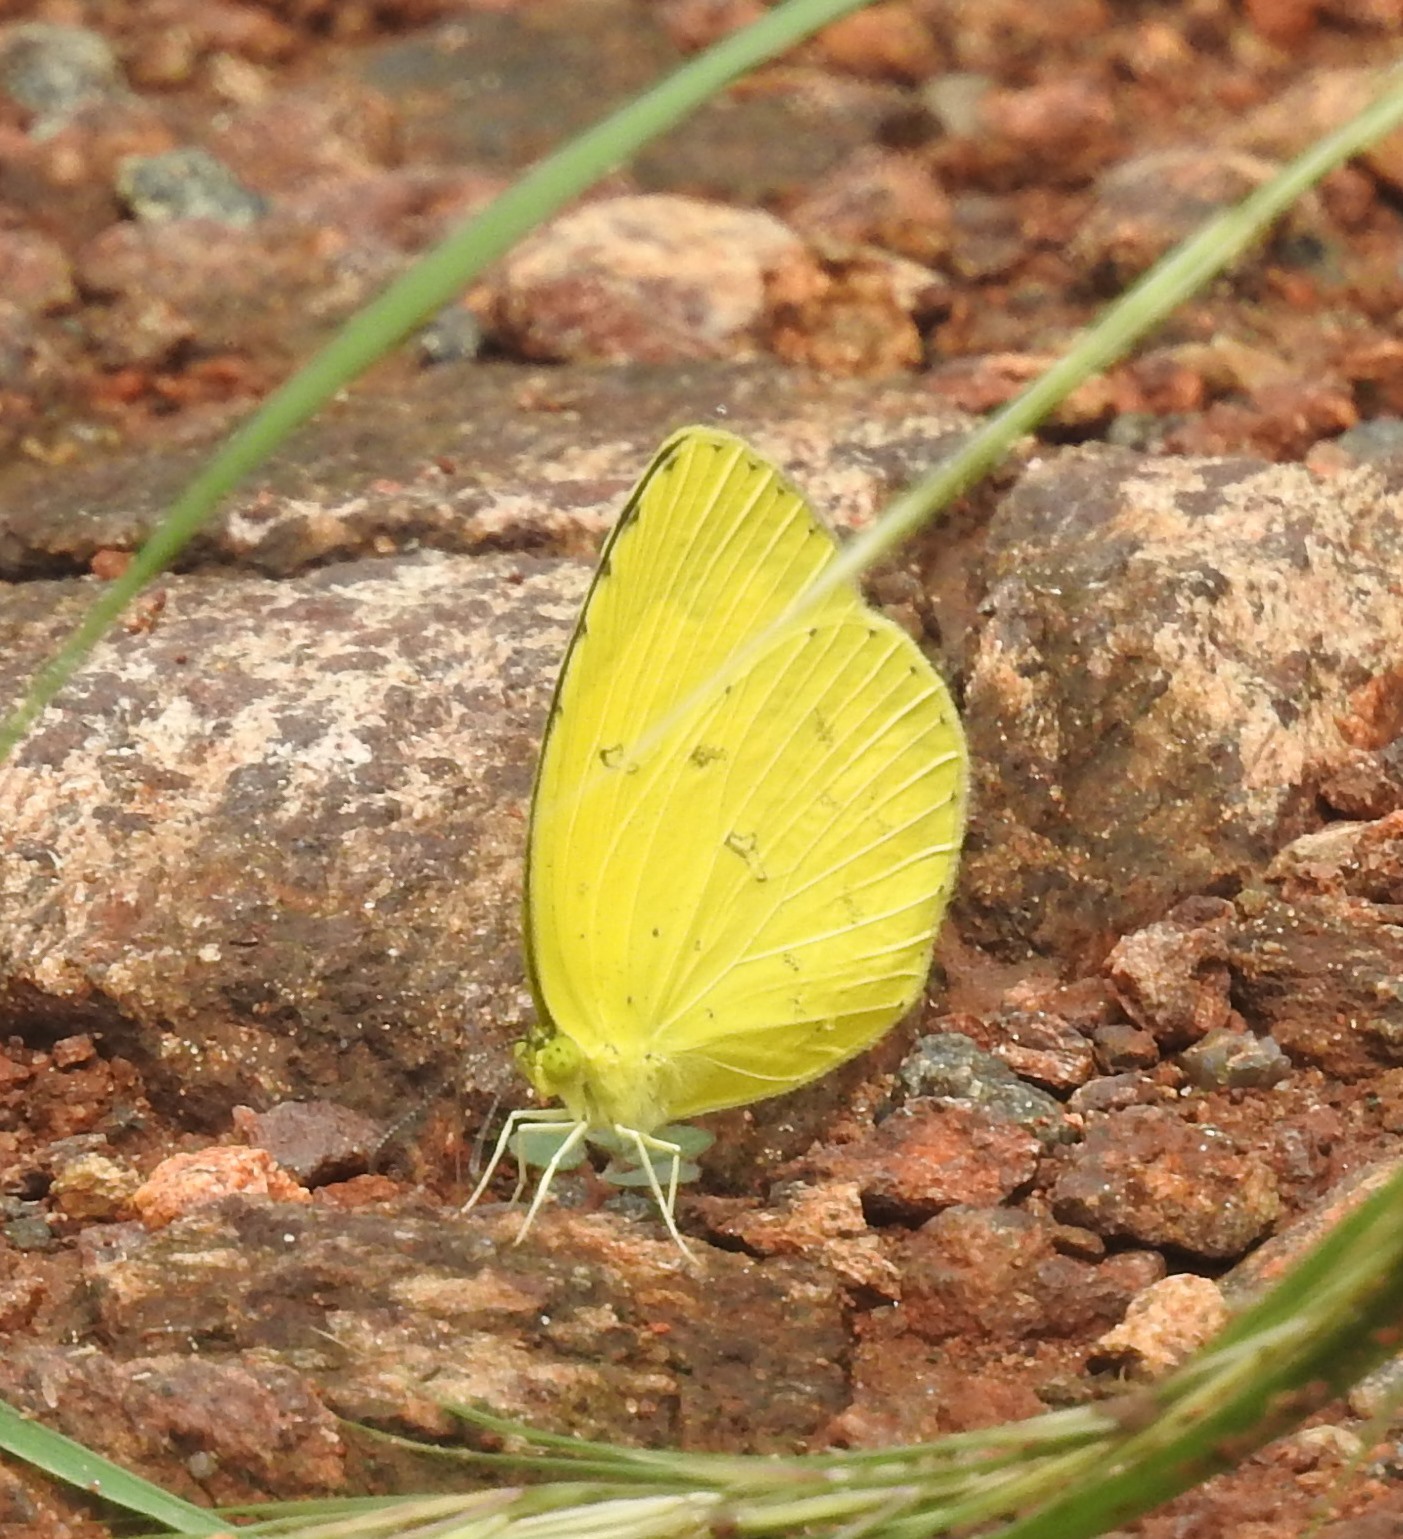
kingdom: Animalia
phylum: Arthropoda
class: Insecta
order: Lepidoptera
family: Pieridae
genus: Eurema
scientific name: Eurema hecabe
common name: Pale grass yellow
